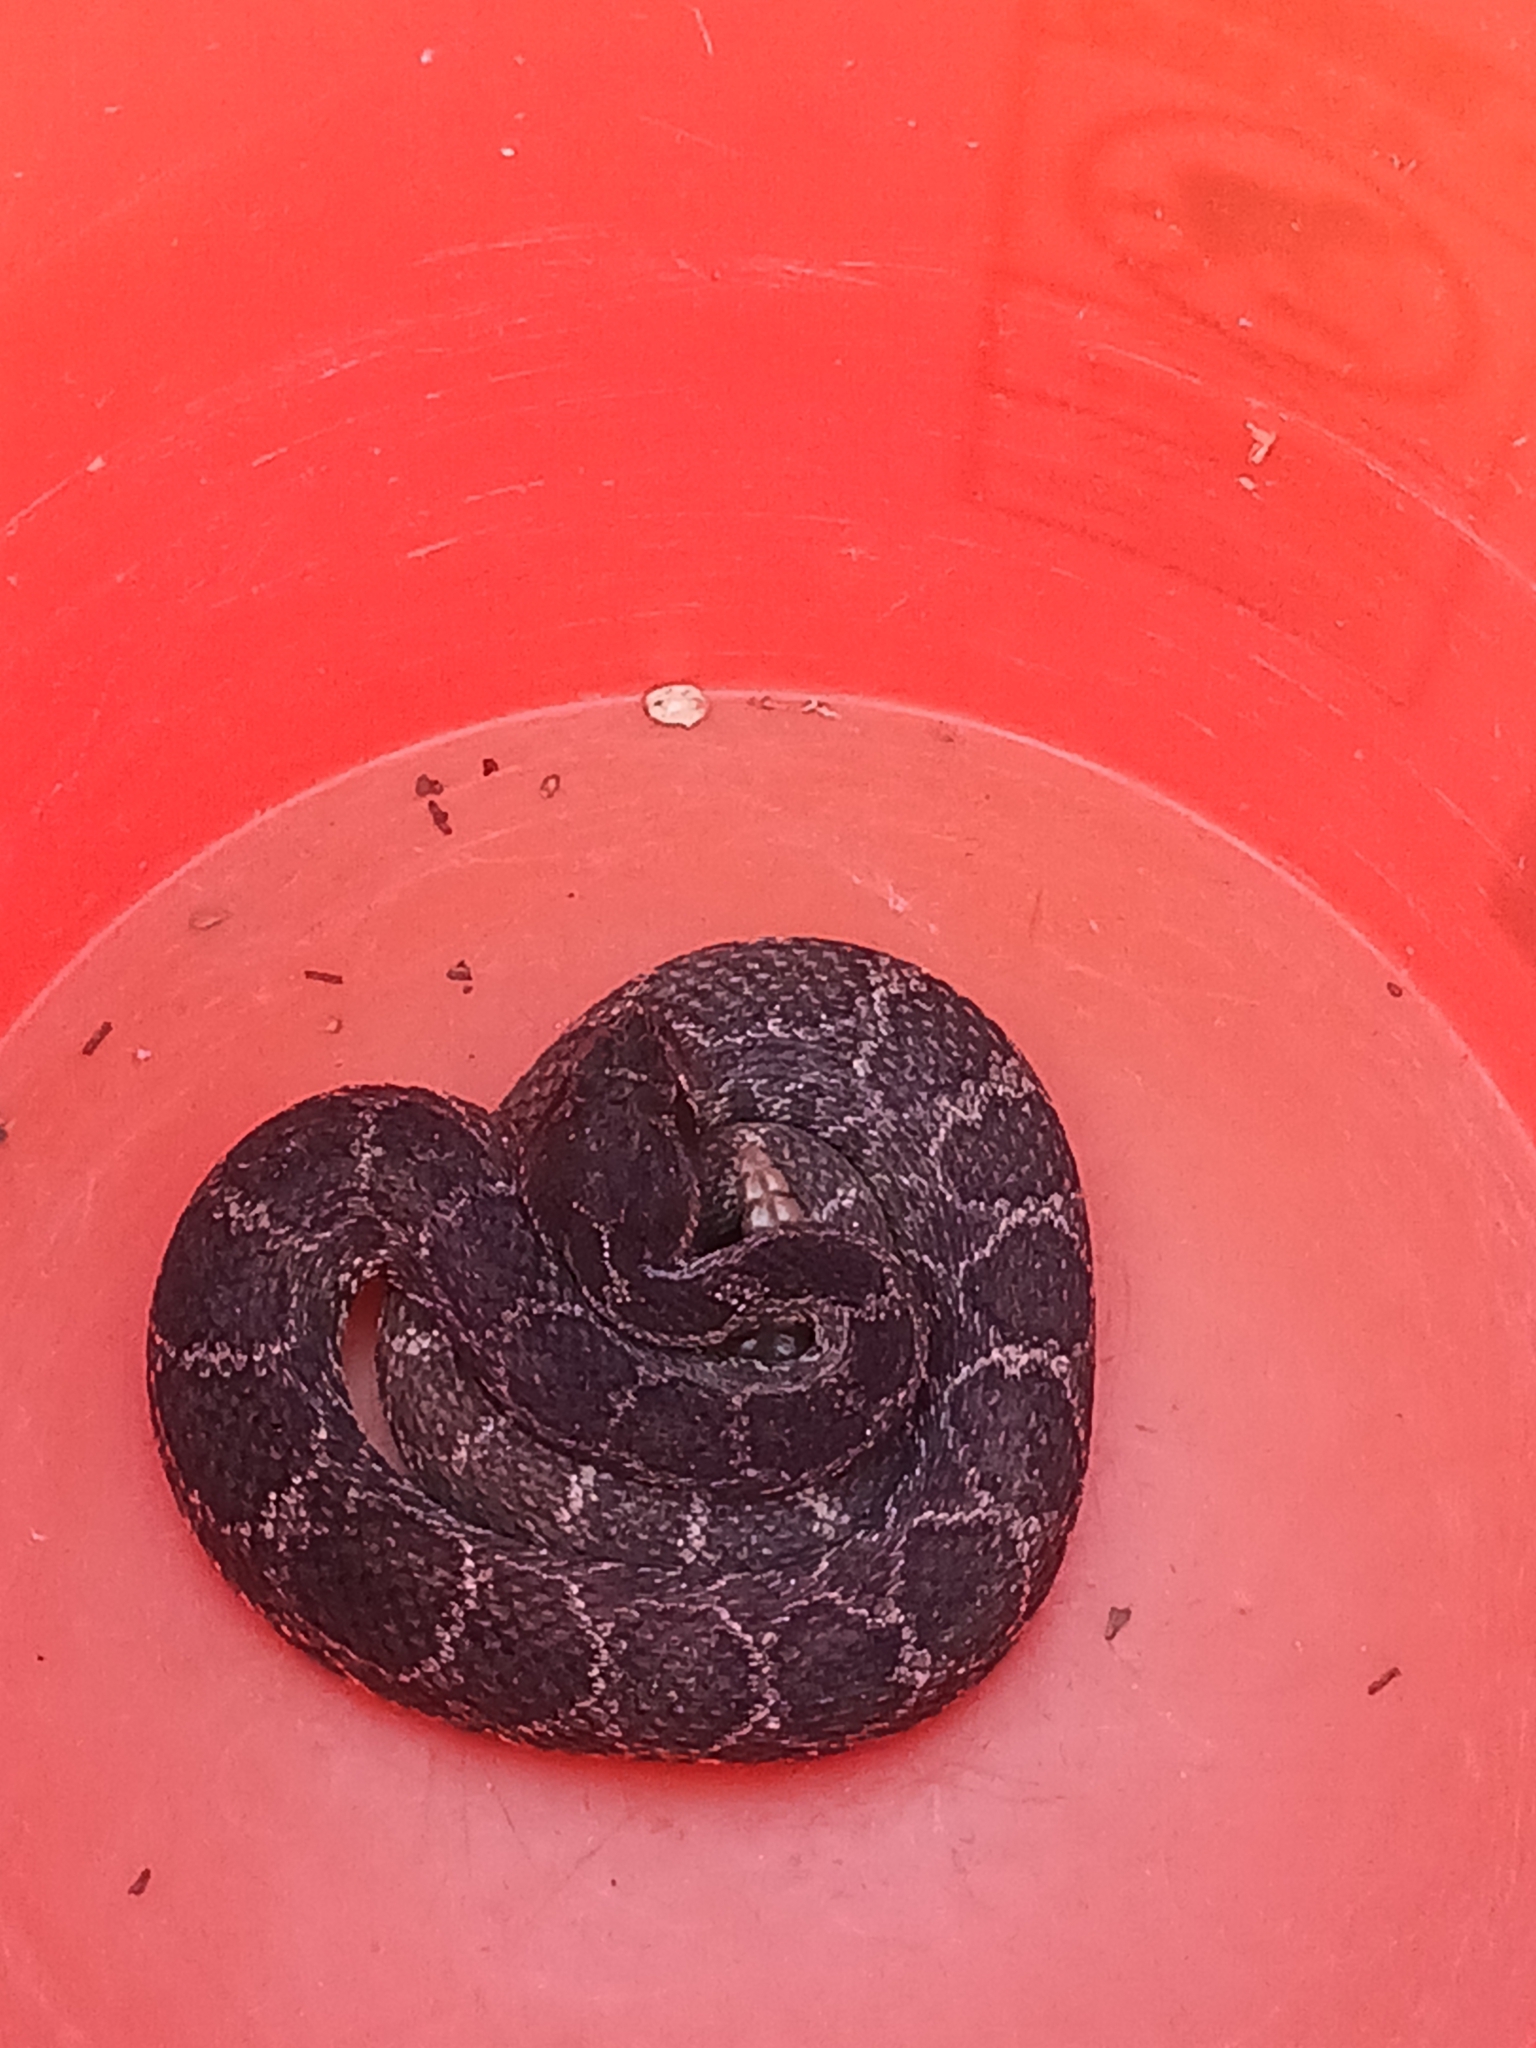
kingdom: Animalia
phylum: Chordata
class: Squamata
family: Viperidae
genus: Crotalus
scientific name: Crotalus oreganus
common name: Abyssus
